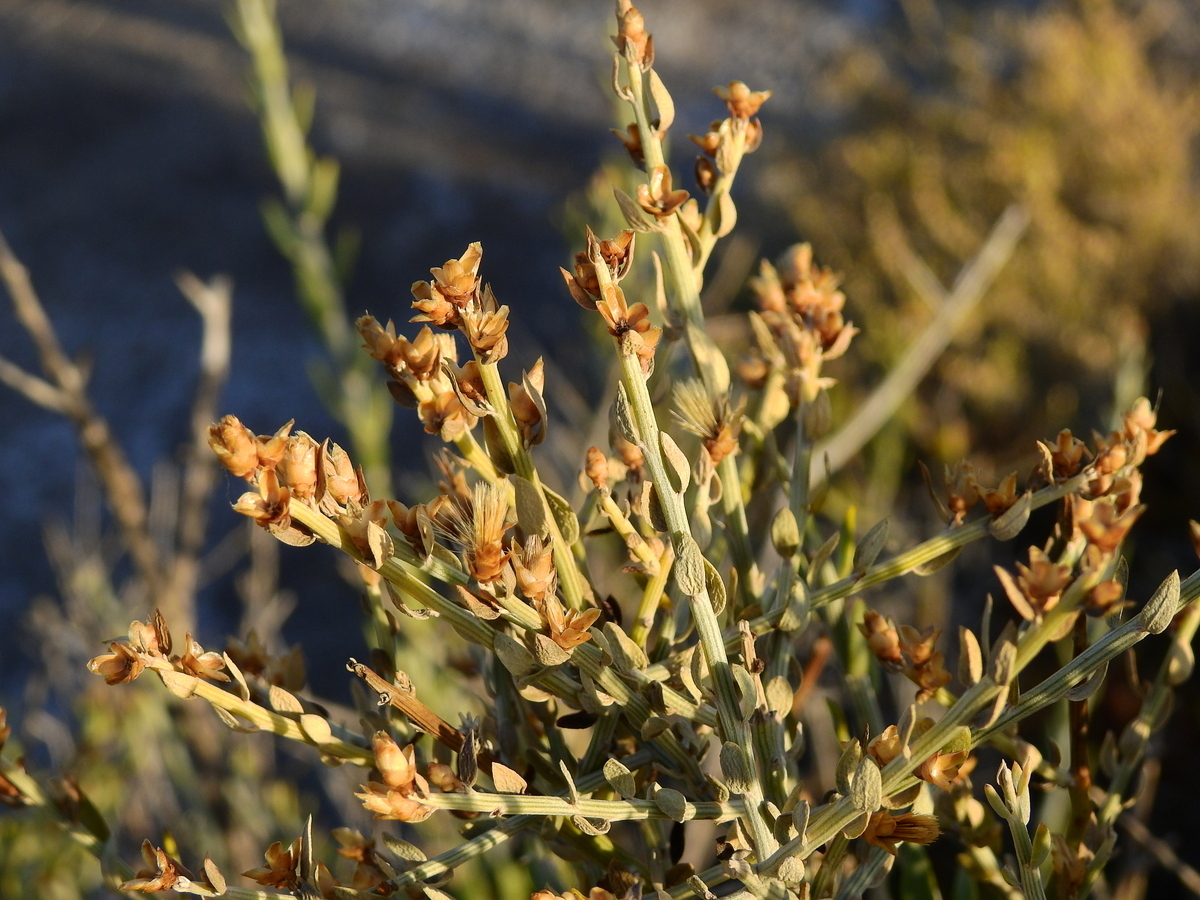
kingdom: Plantae
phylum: Tracheophyta
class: Magnoliopsida
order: Asterales
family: Asteraceae
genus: Cyclolepis
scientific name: Cyclolepis genistoides
